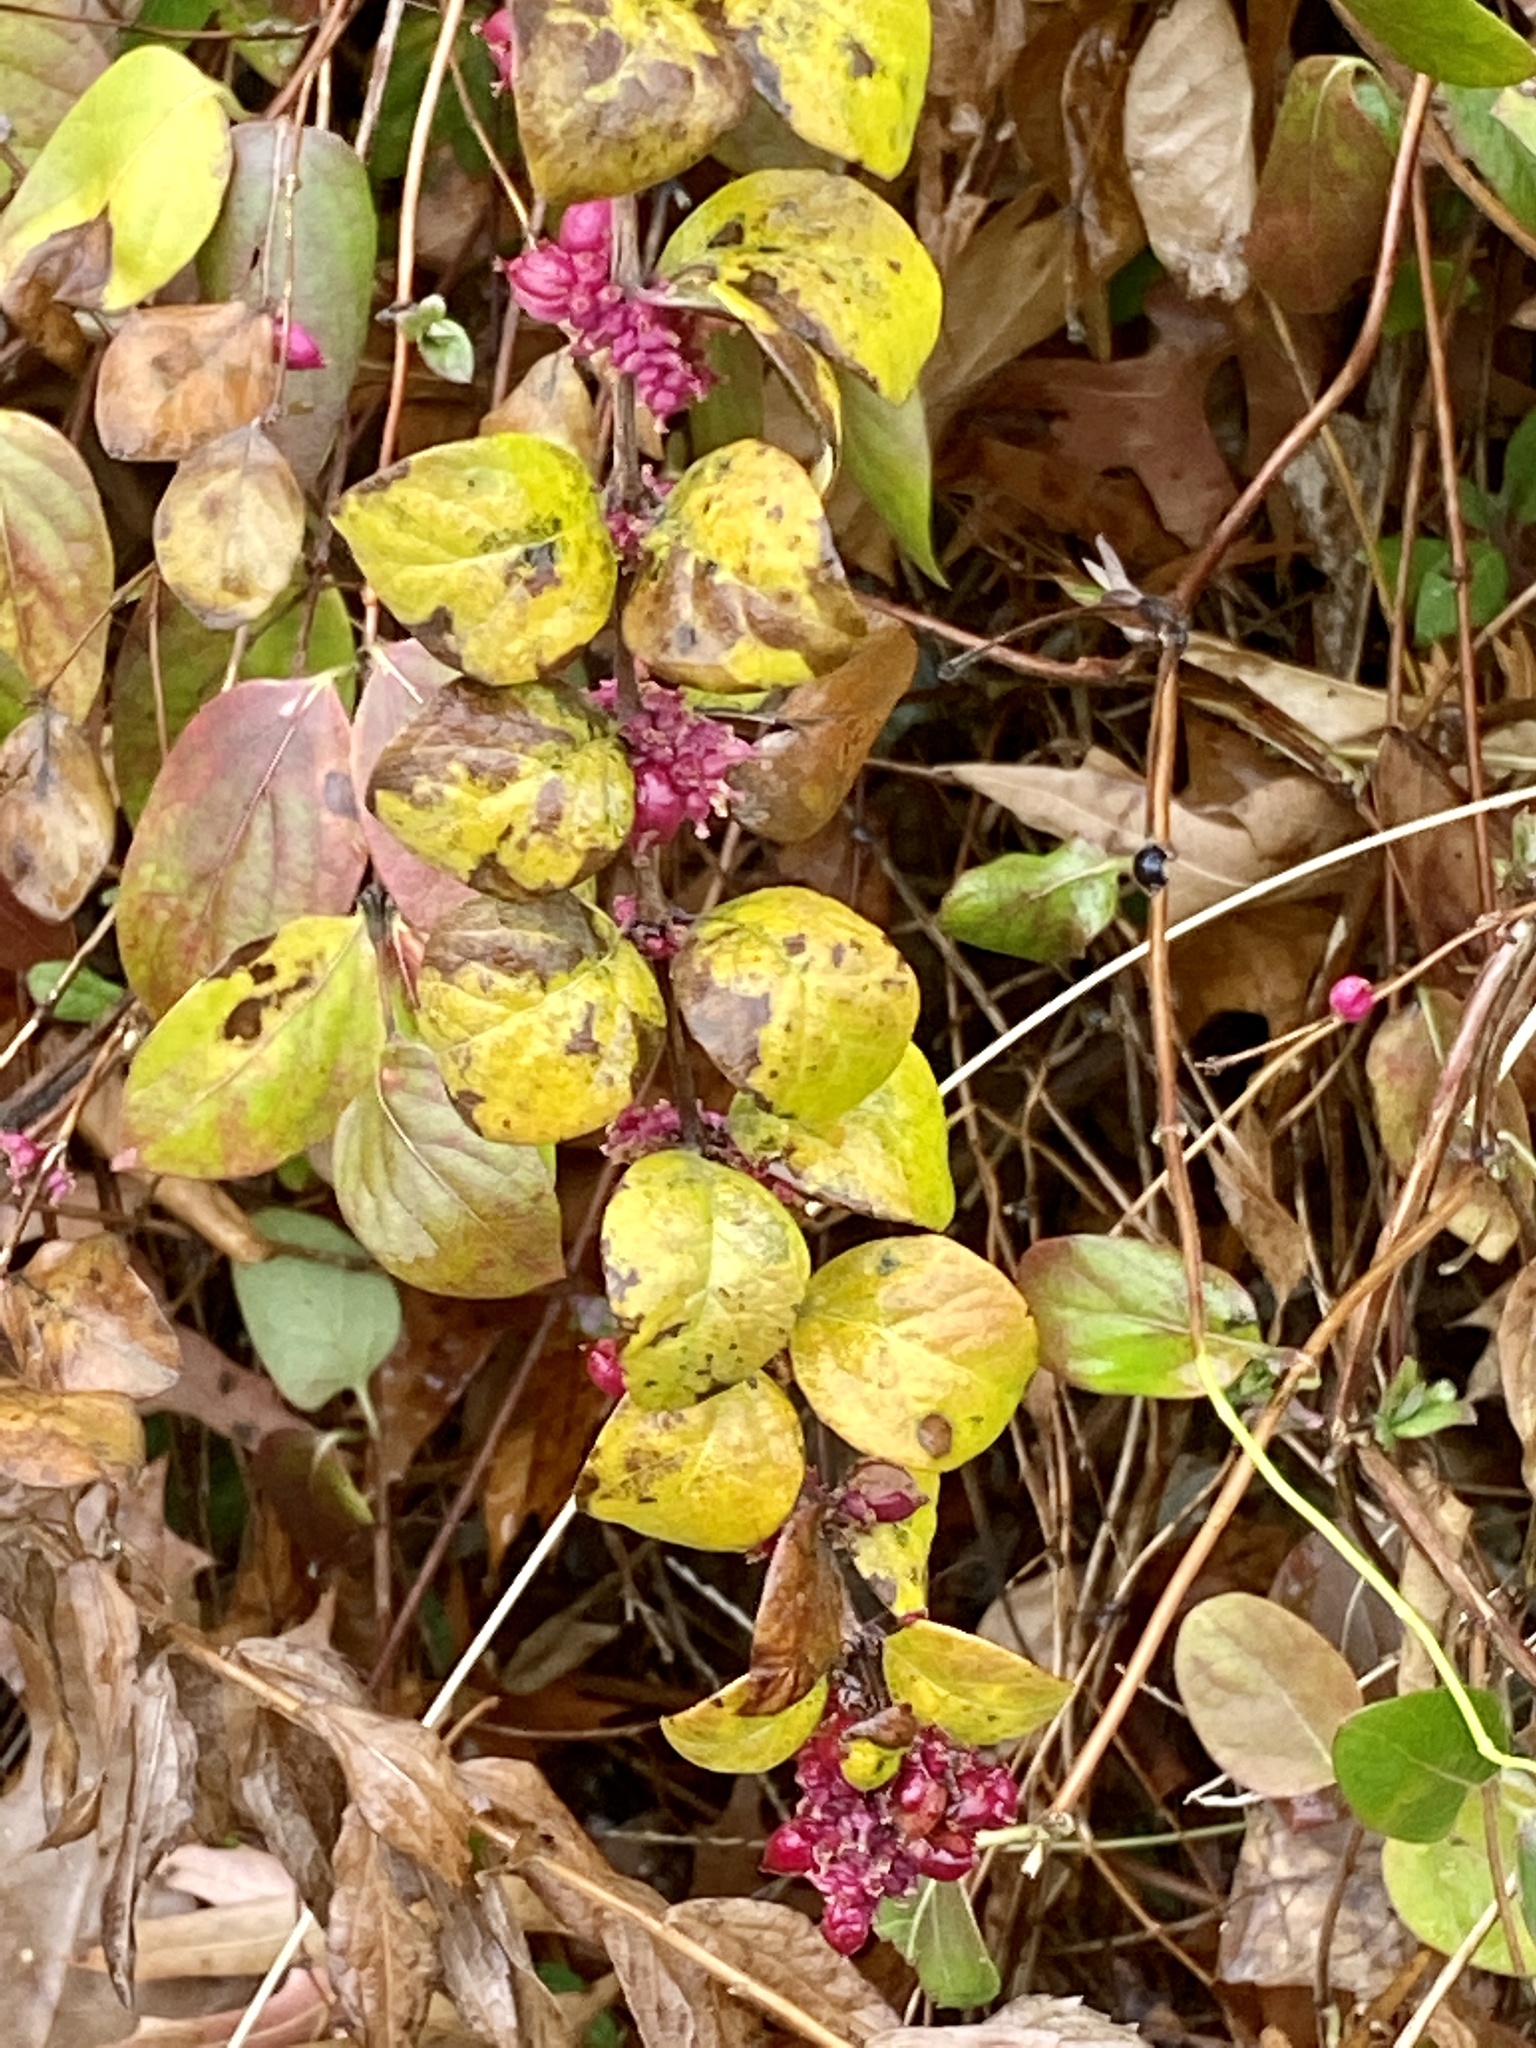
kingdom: Plantae
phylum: Tracheophyta
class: Magnoliopsida
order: Dipsacales
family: Caprifoliaceae
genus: Symphoricarpos
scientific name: Symphoricarpos orbiculatus
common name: Coralberry
